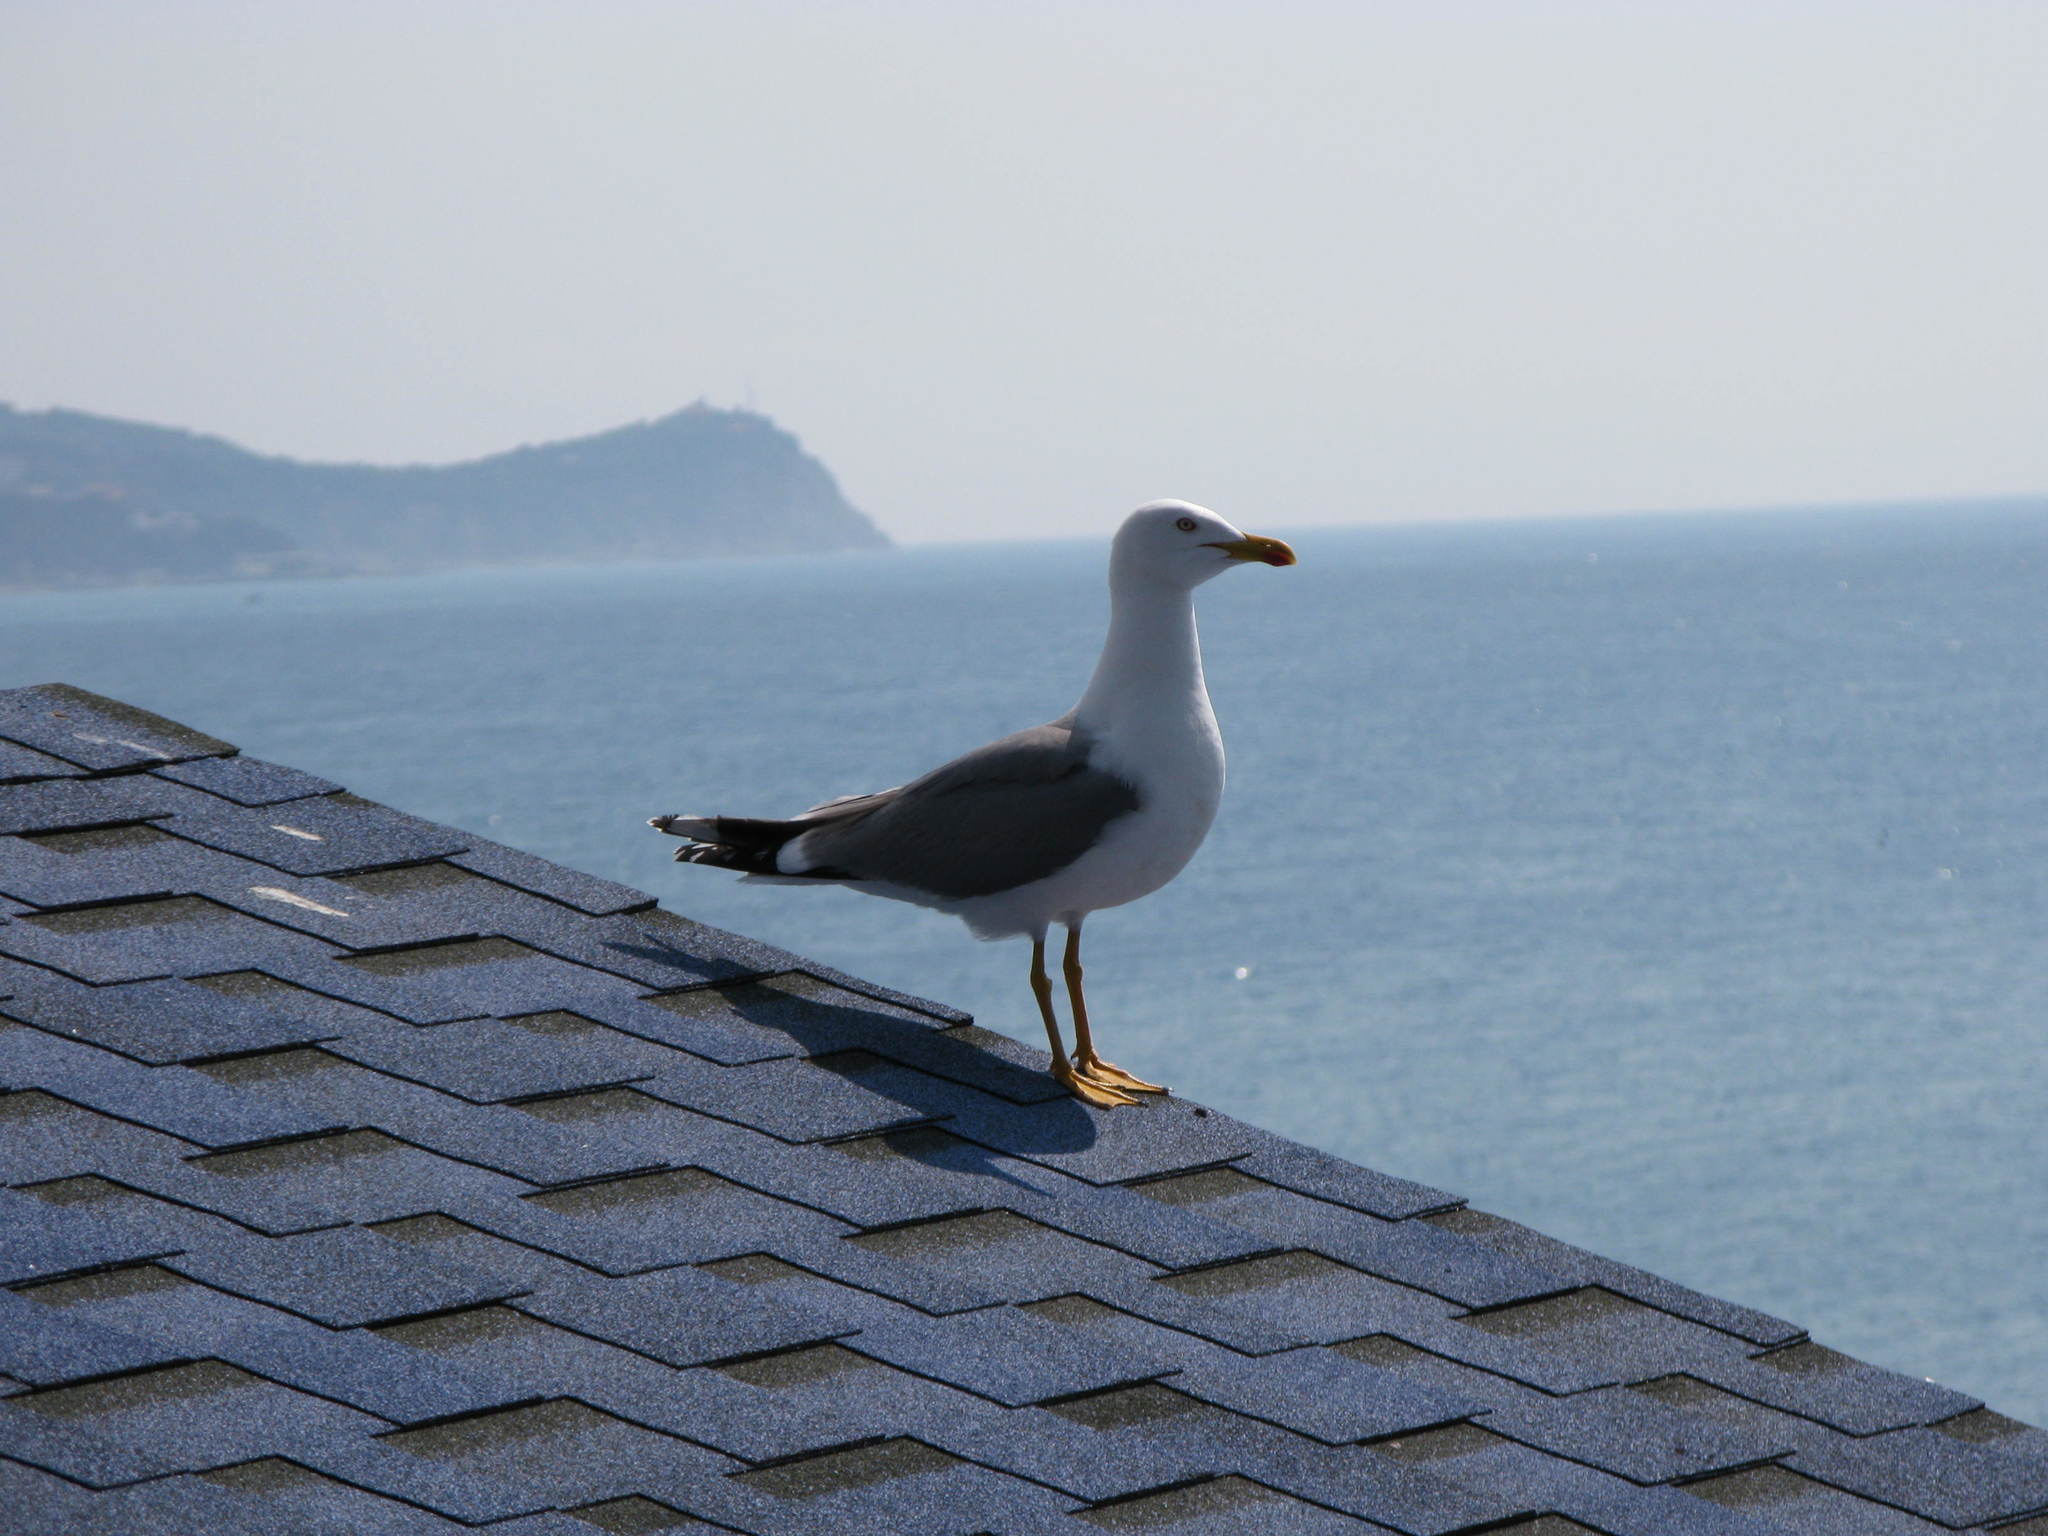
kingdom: Animalia
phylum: Chordata
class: Aves
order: Charadriiformes
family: Laridae
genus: Larus
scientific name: Larus michahellis
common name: Yellow-legged gull
